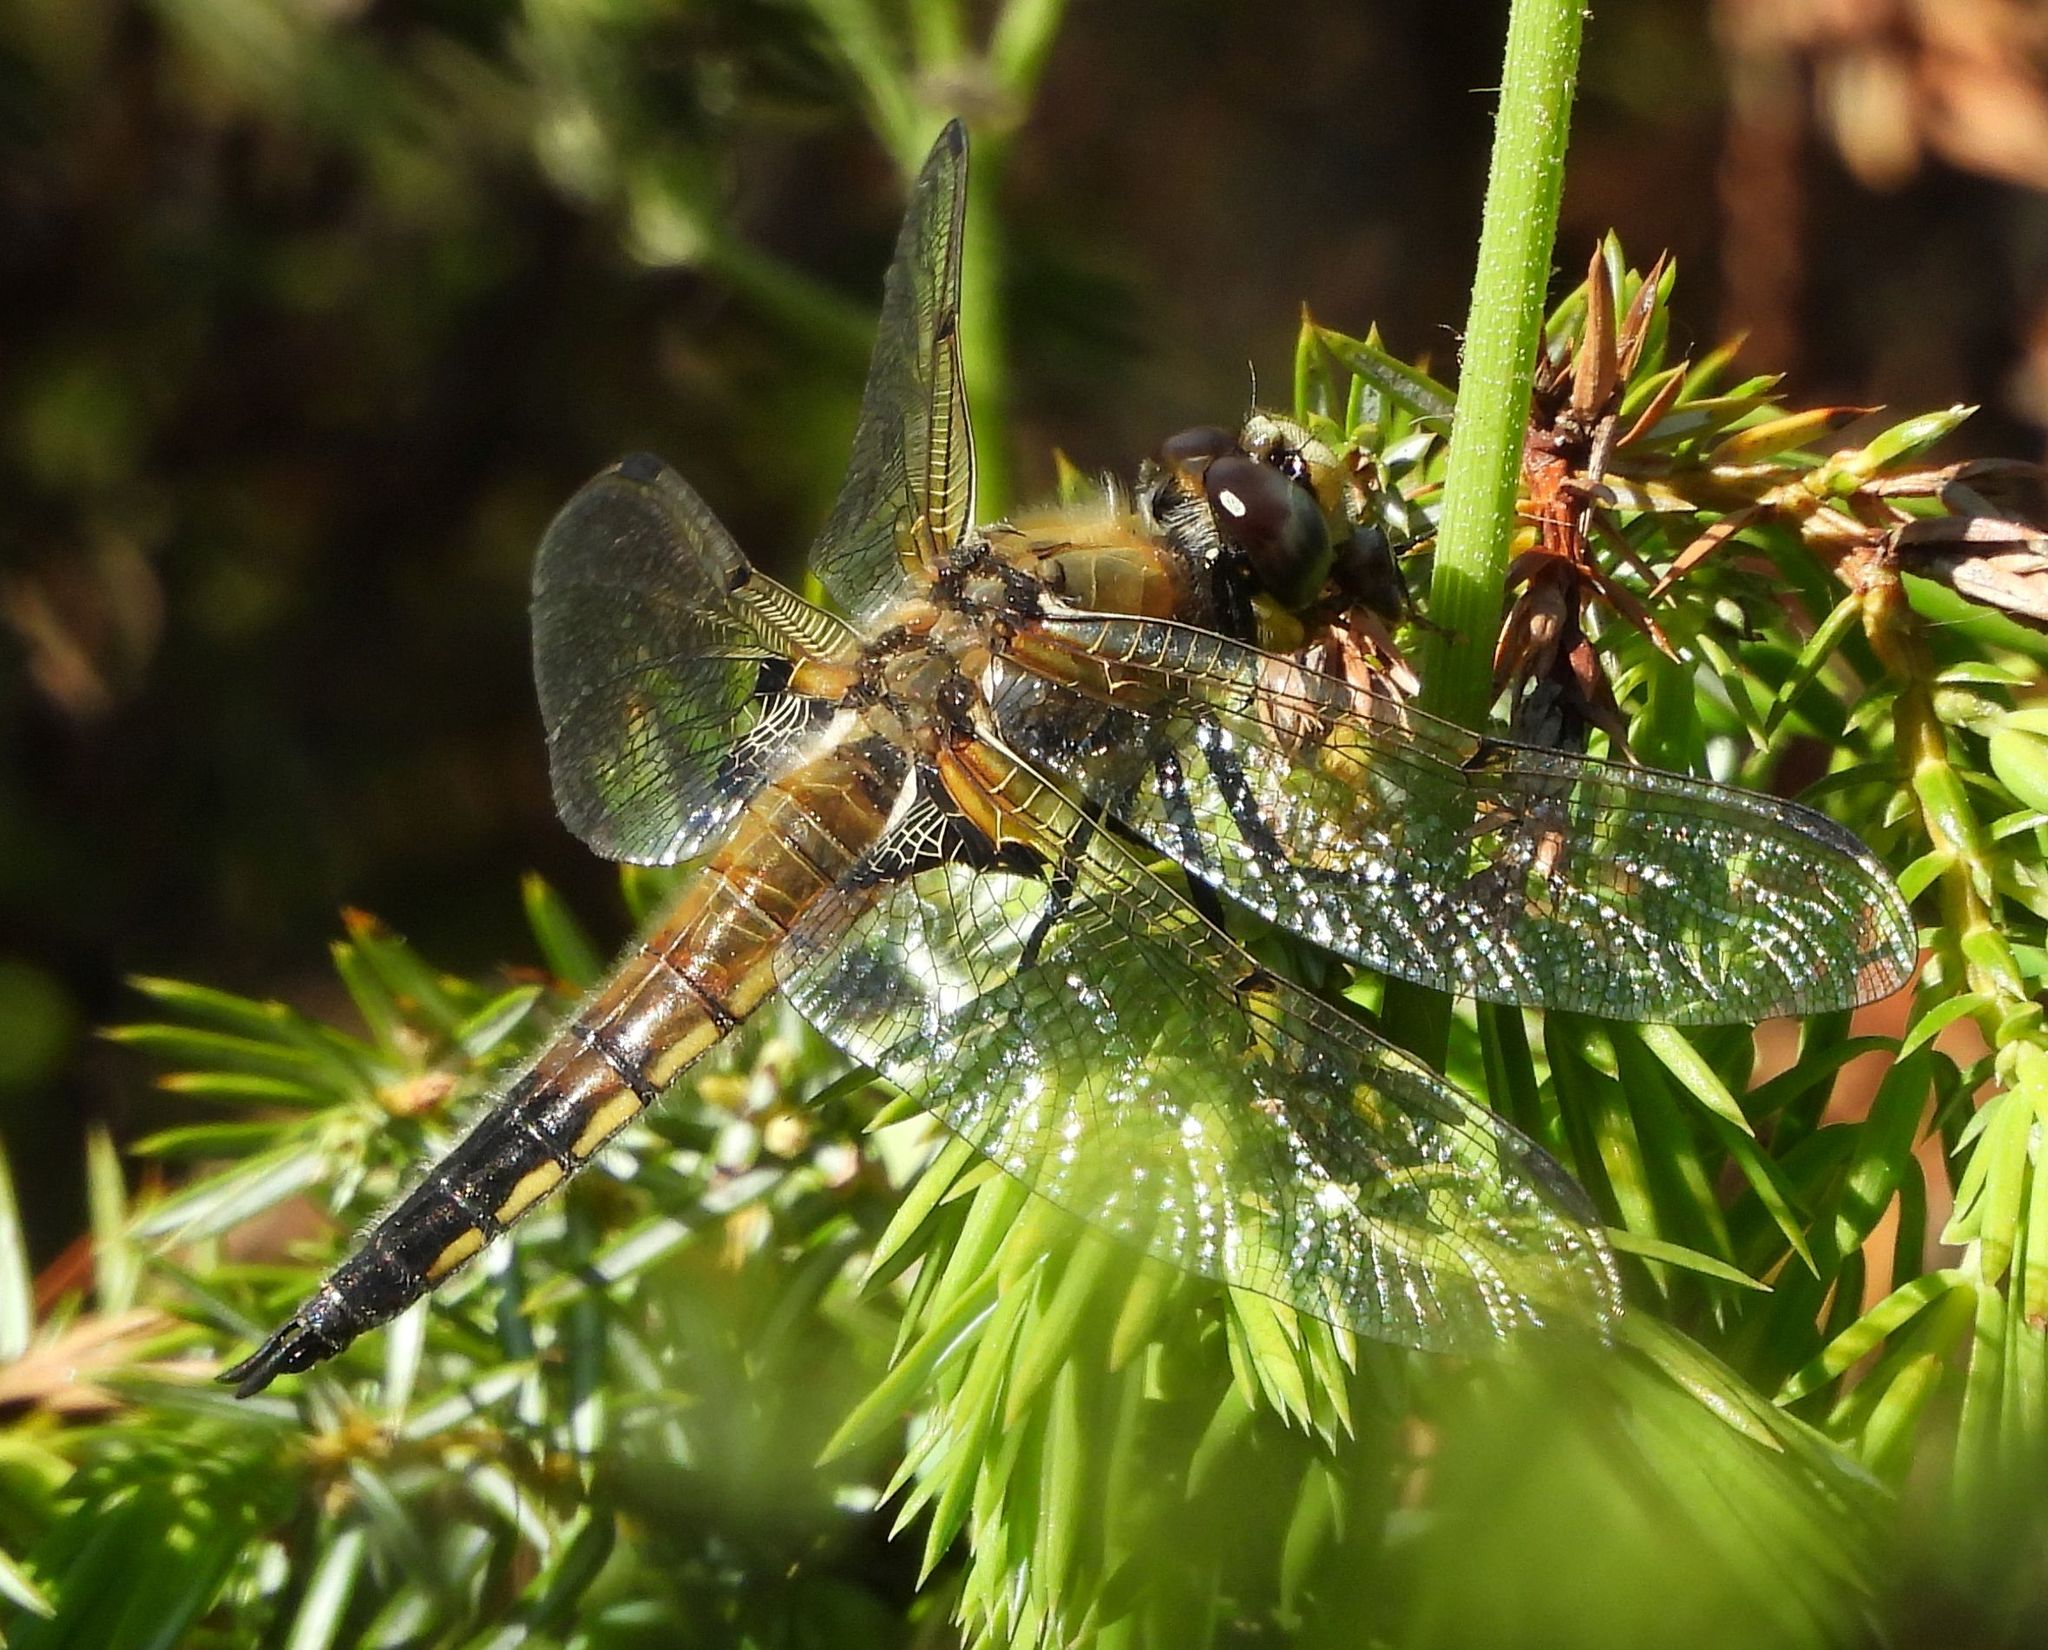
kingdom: Animalia
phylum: Arthropoda
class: Insecta
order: Odonata
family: Libellulidae
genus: Libellula
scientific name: Libellula quadrimaculata
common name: Four-spotted chaser
